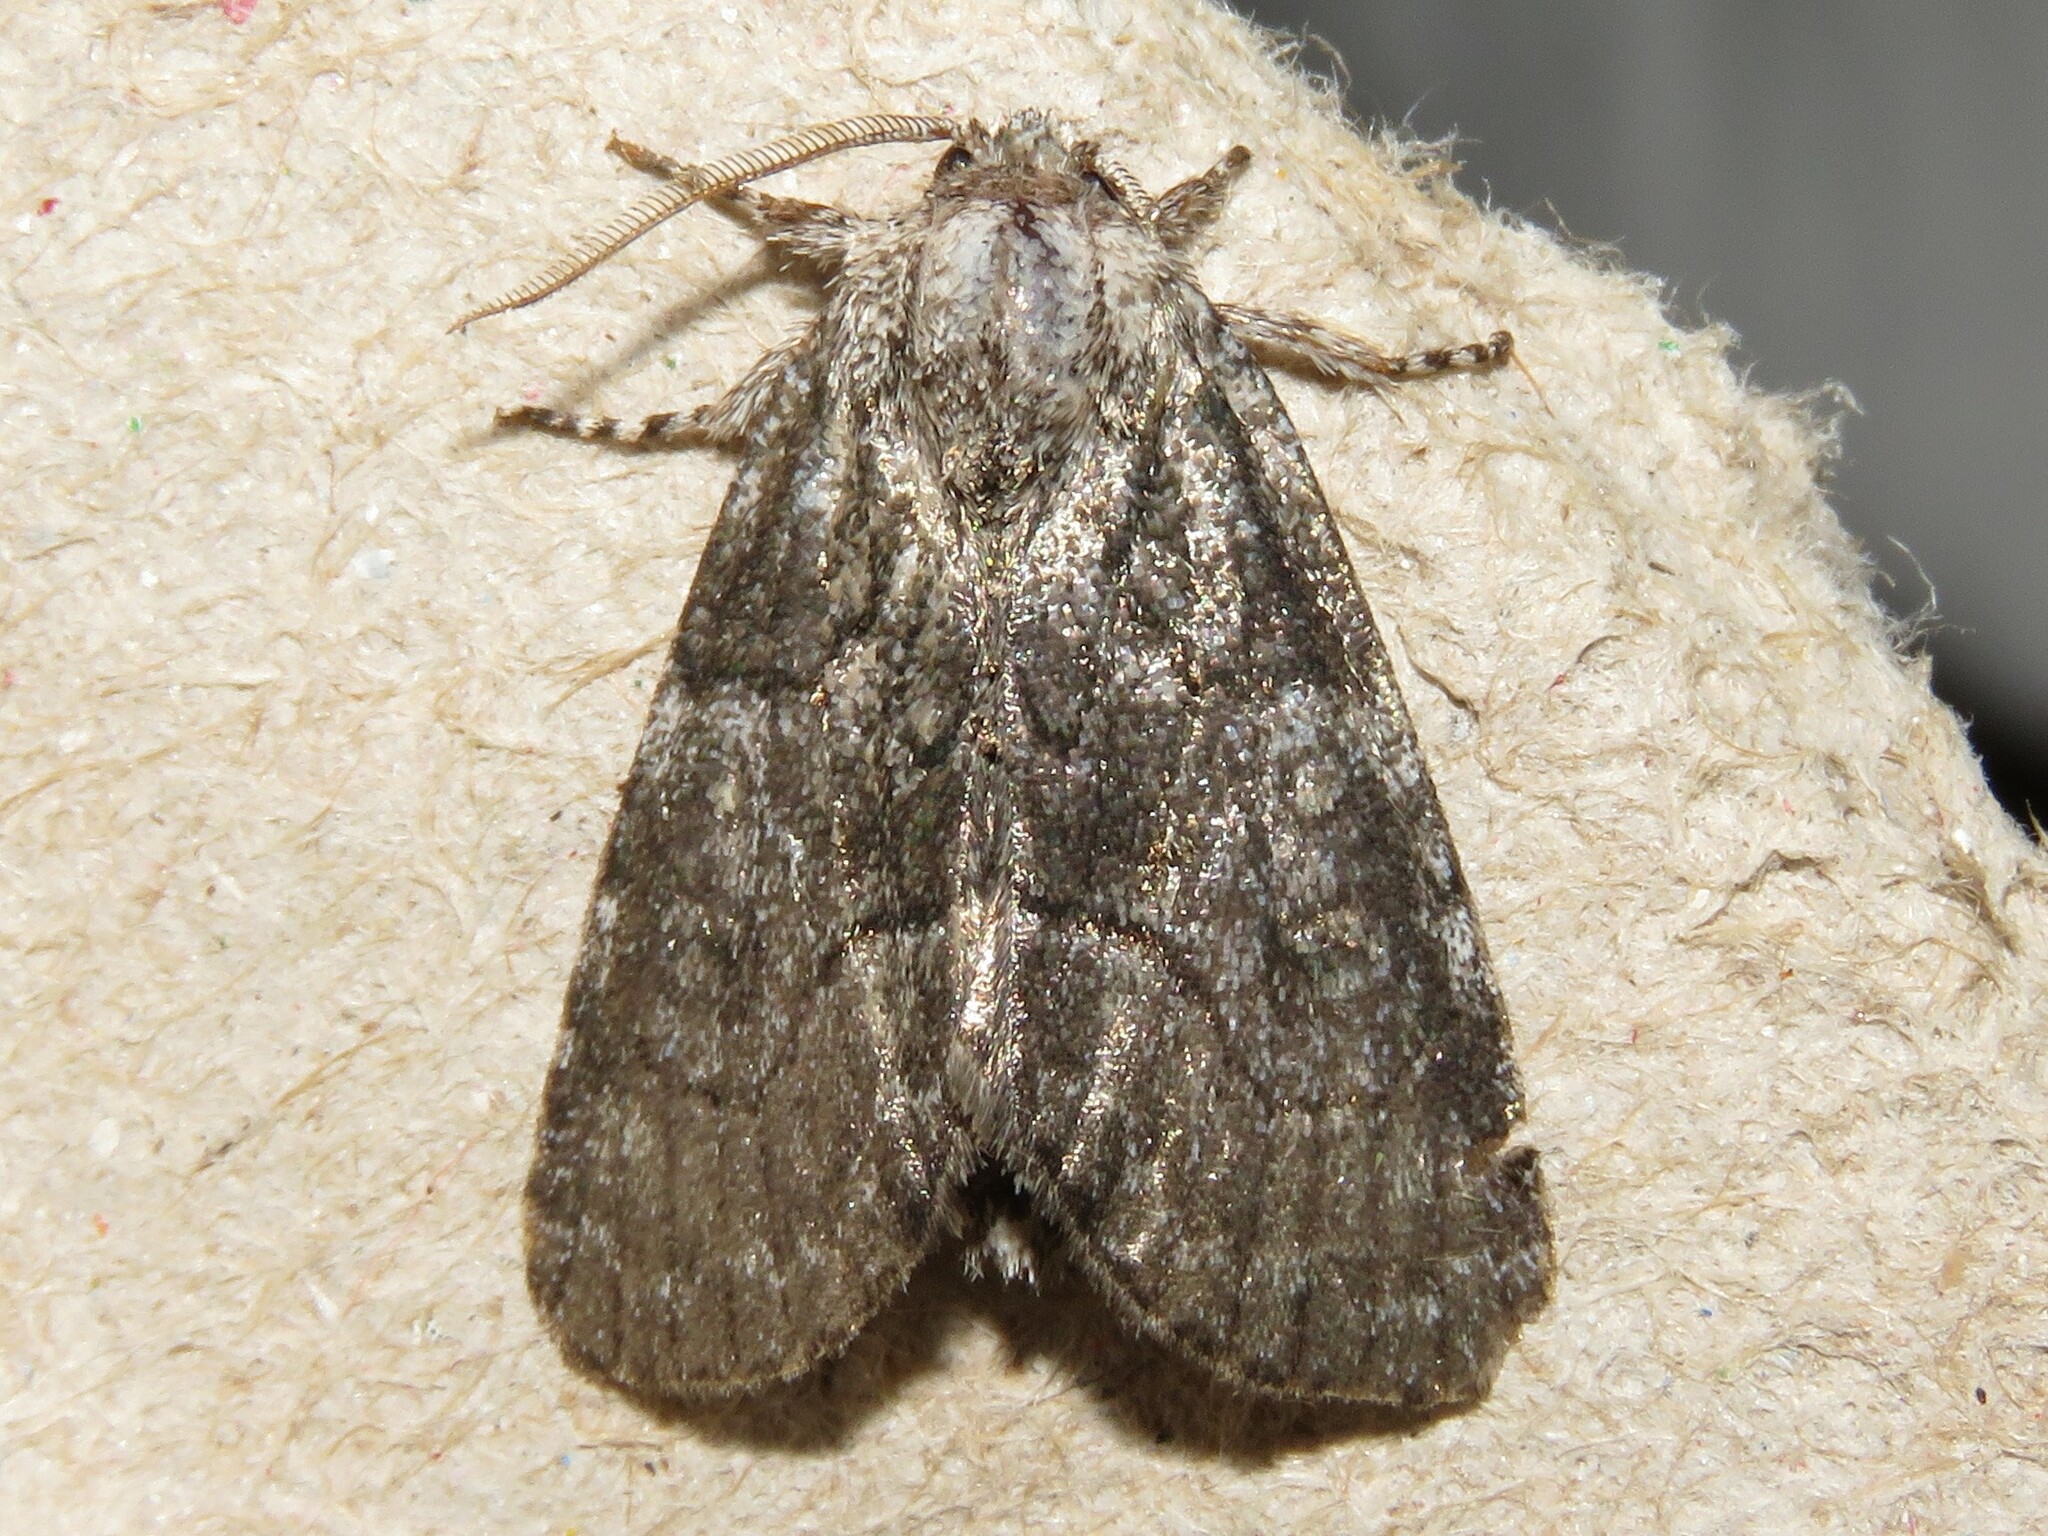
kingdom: Animalia
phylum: Arthropoda
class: Insecta
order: Lepidoptera
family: Noctuidae
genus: Raphia
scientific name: Raphia frater
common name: Brother
